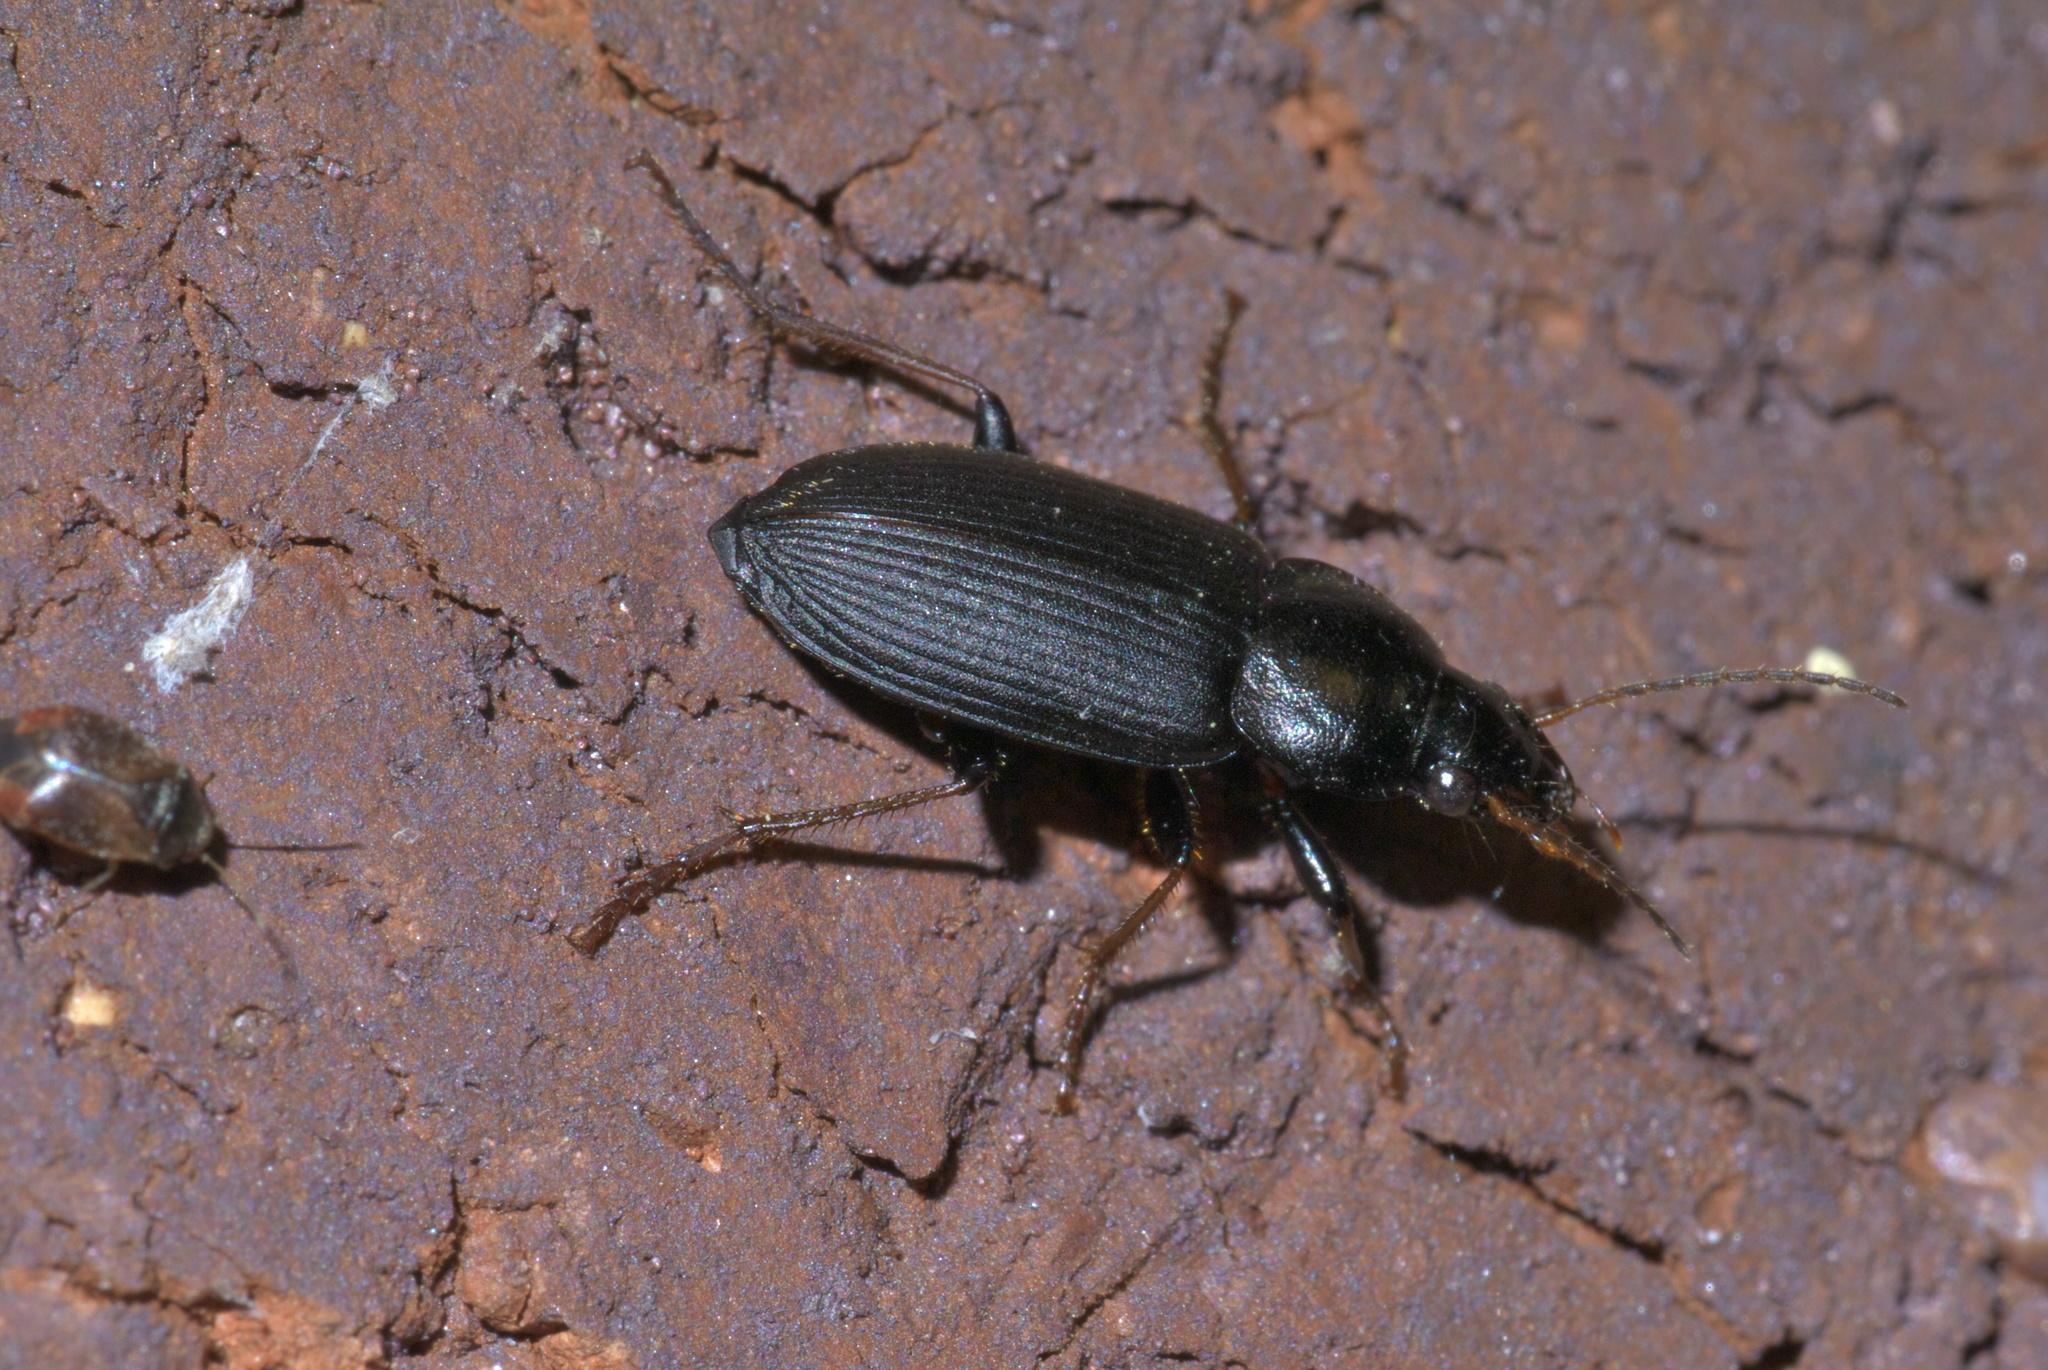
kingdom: Animalia
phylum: Arthropoda
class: Insecta
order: Coleoptera
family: Carabidae
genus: Amphasia
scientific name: Amphasia sericea
